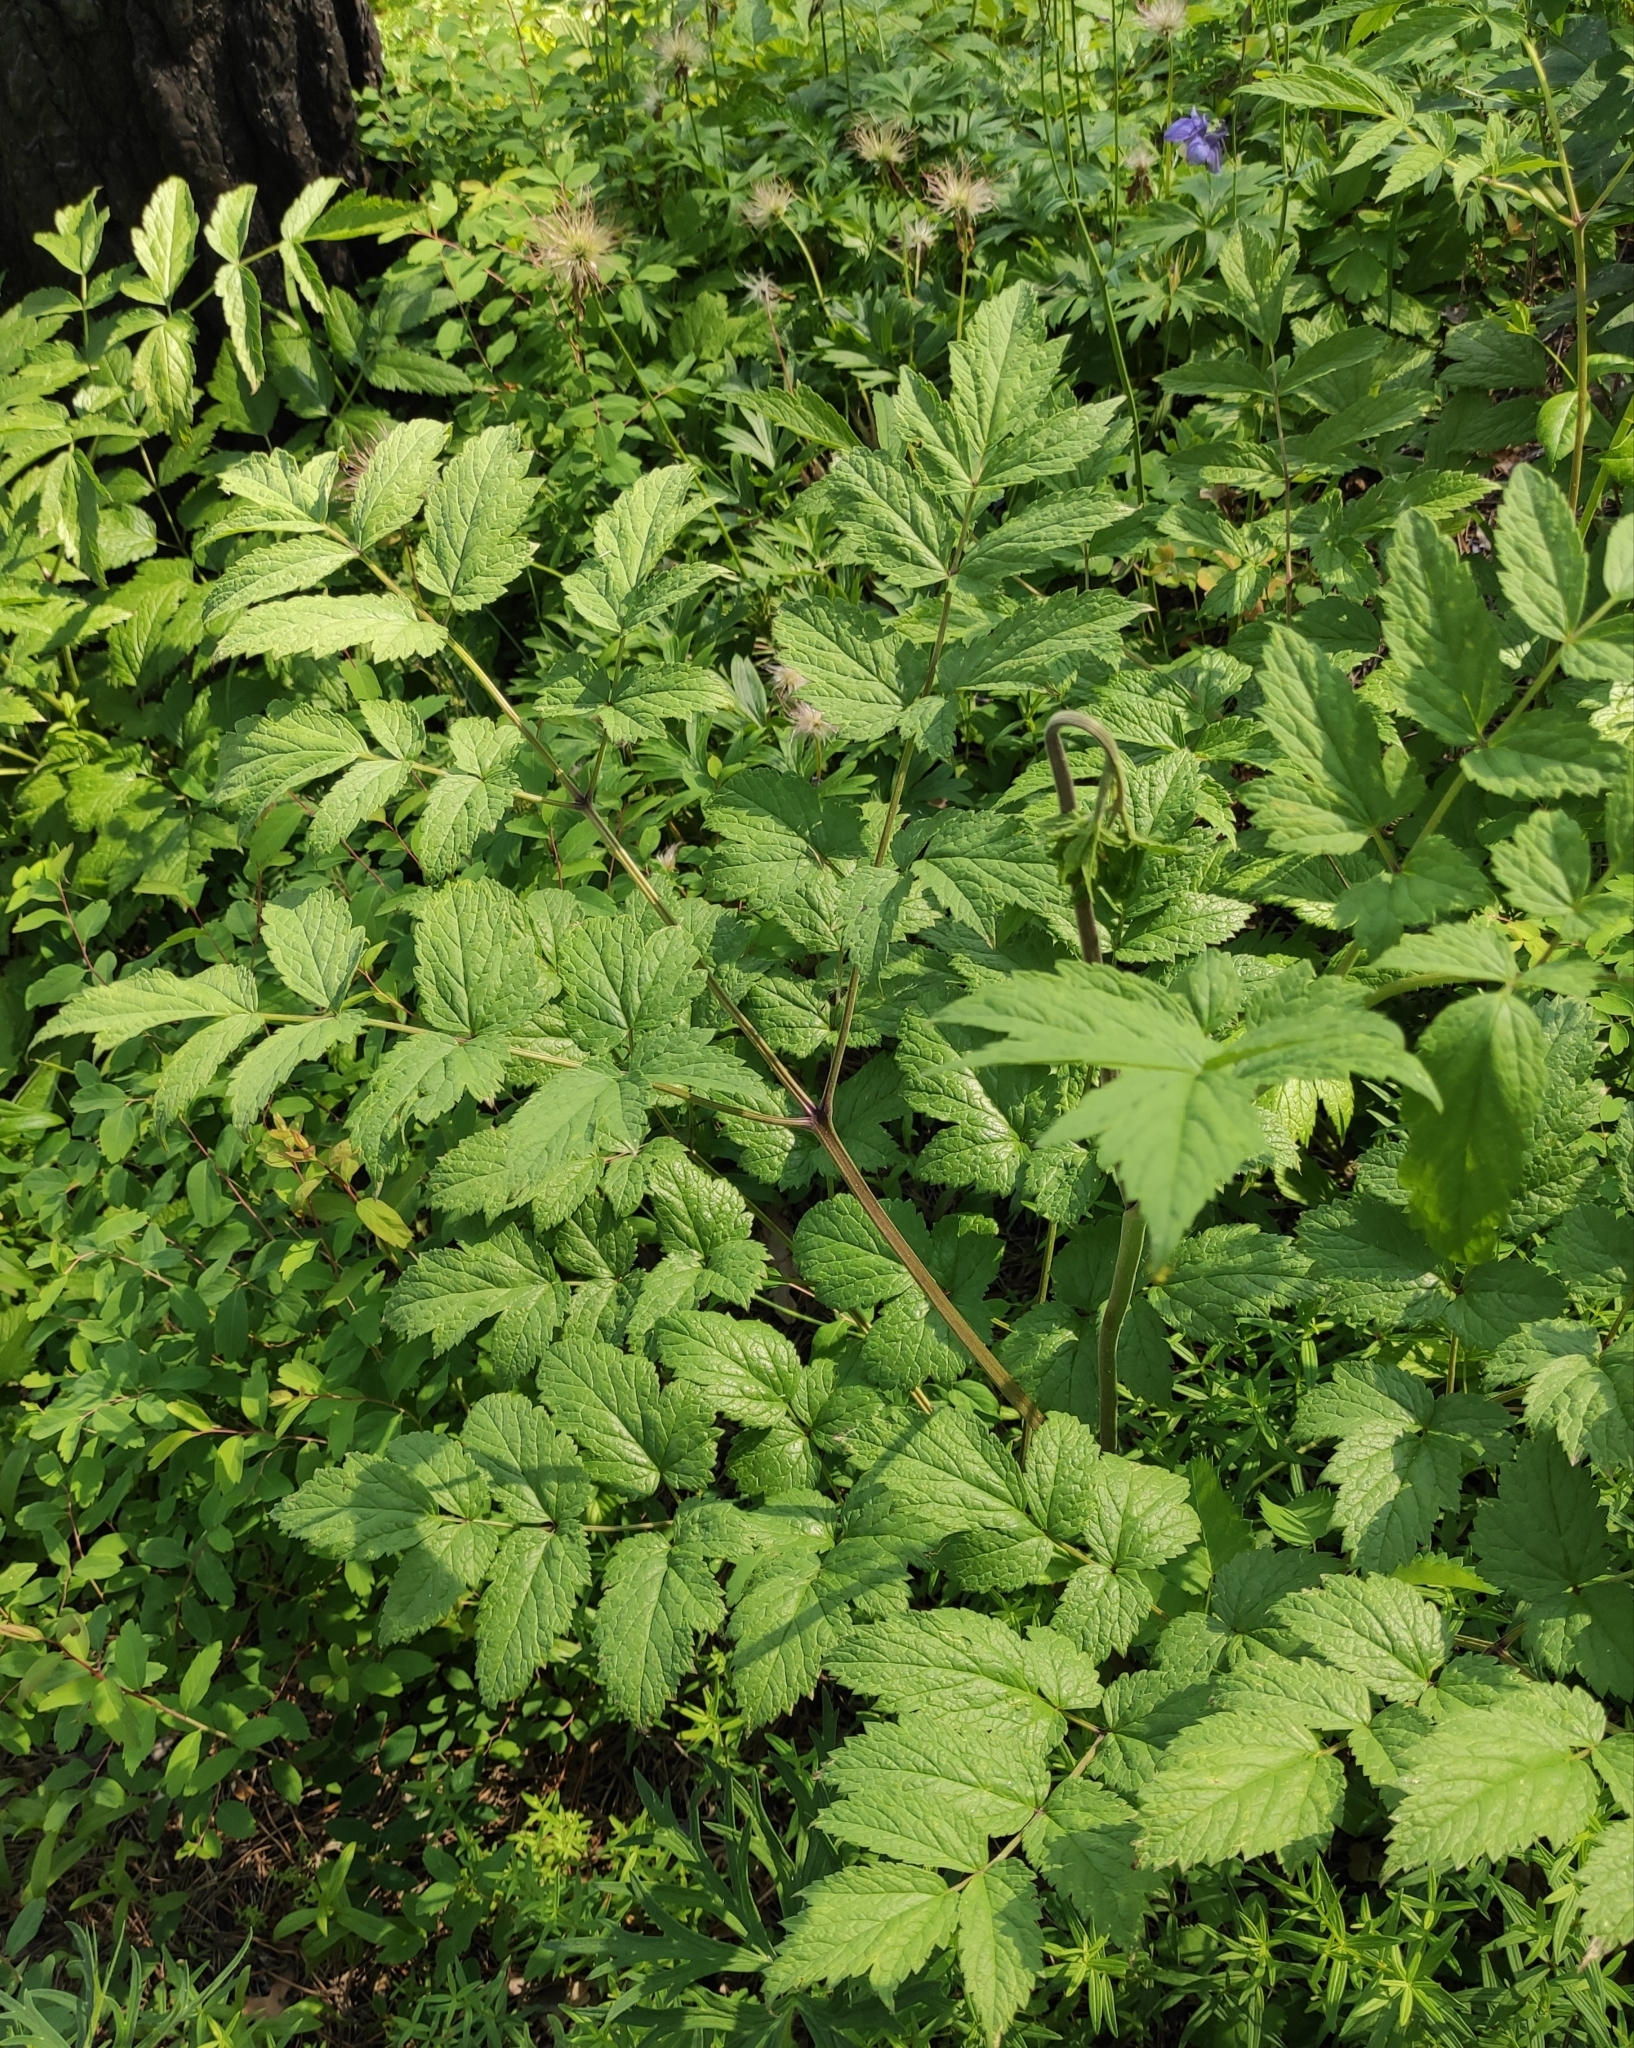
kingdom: Plantae
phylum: Tracheophyta
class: Magnoliopsida
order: Ranunculales
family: Ranunculaceae
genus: Actaea
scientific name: Actaea cimicifuga
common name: Chinese cimicifuga
